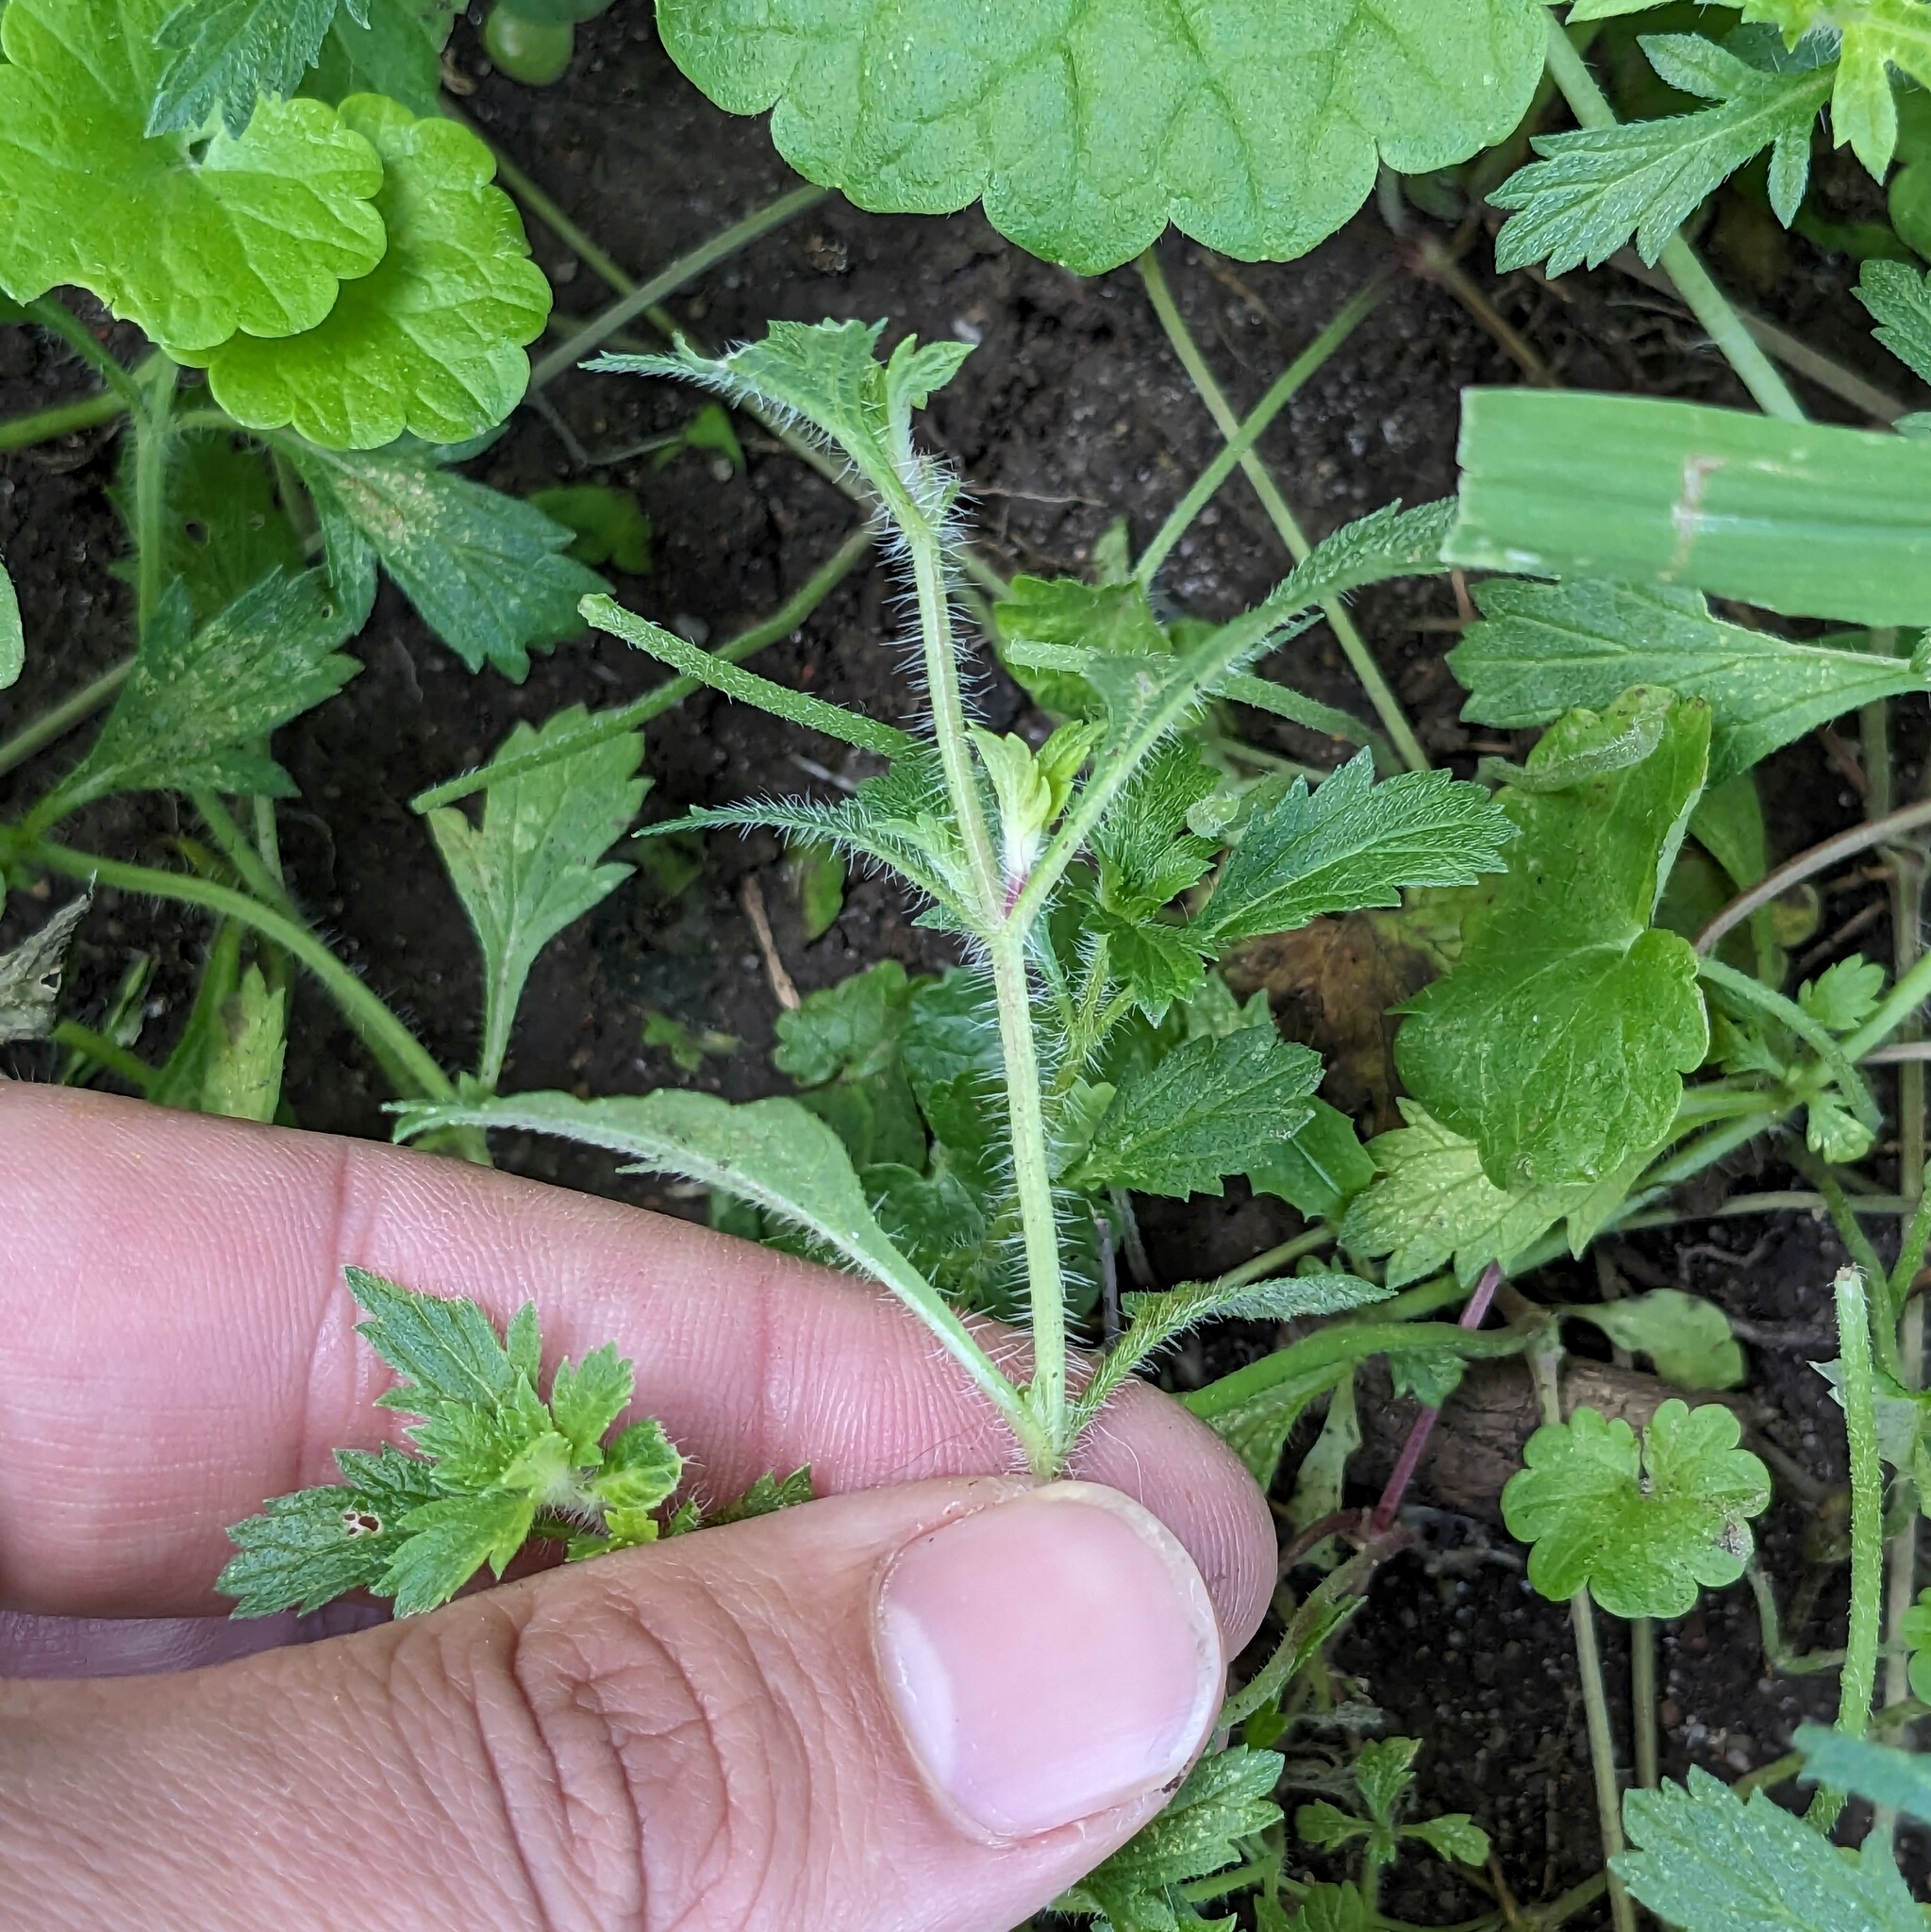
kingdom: Plantae
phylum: Tracheophyta
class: Magnoliopsida
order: Lamiales
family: Verbenaceae
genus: Verbena
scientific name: Verbena bracteata
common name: Bracted vervain
